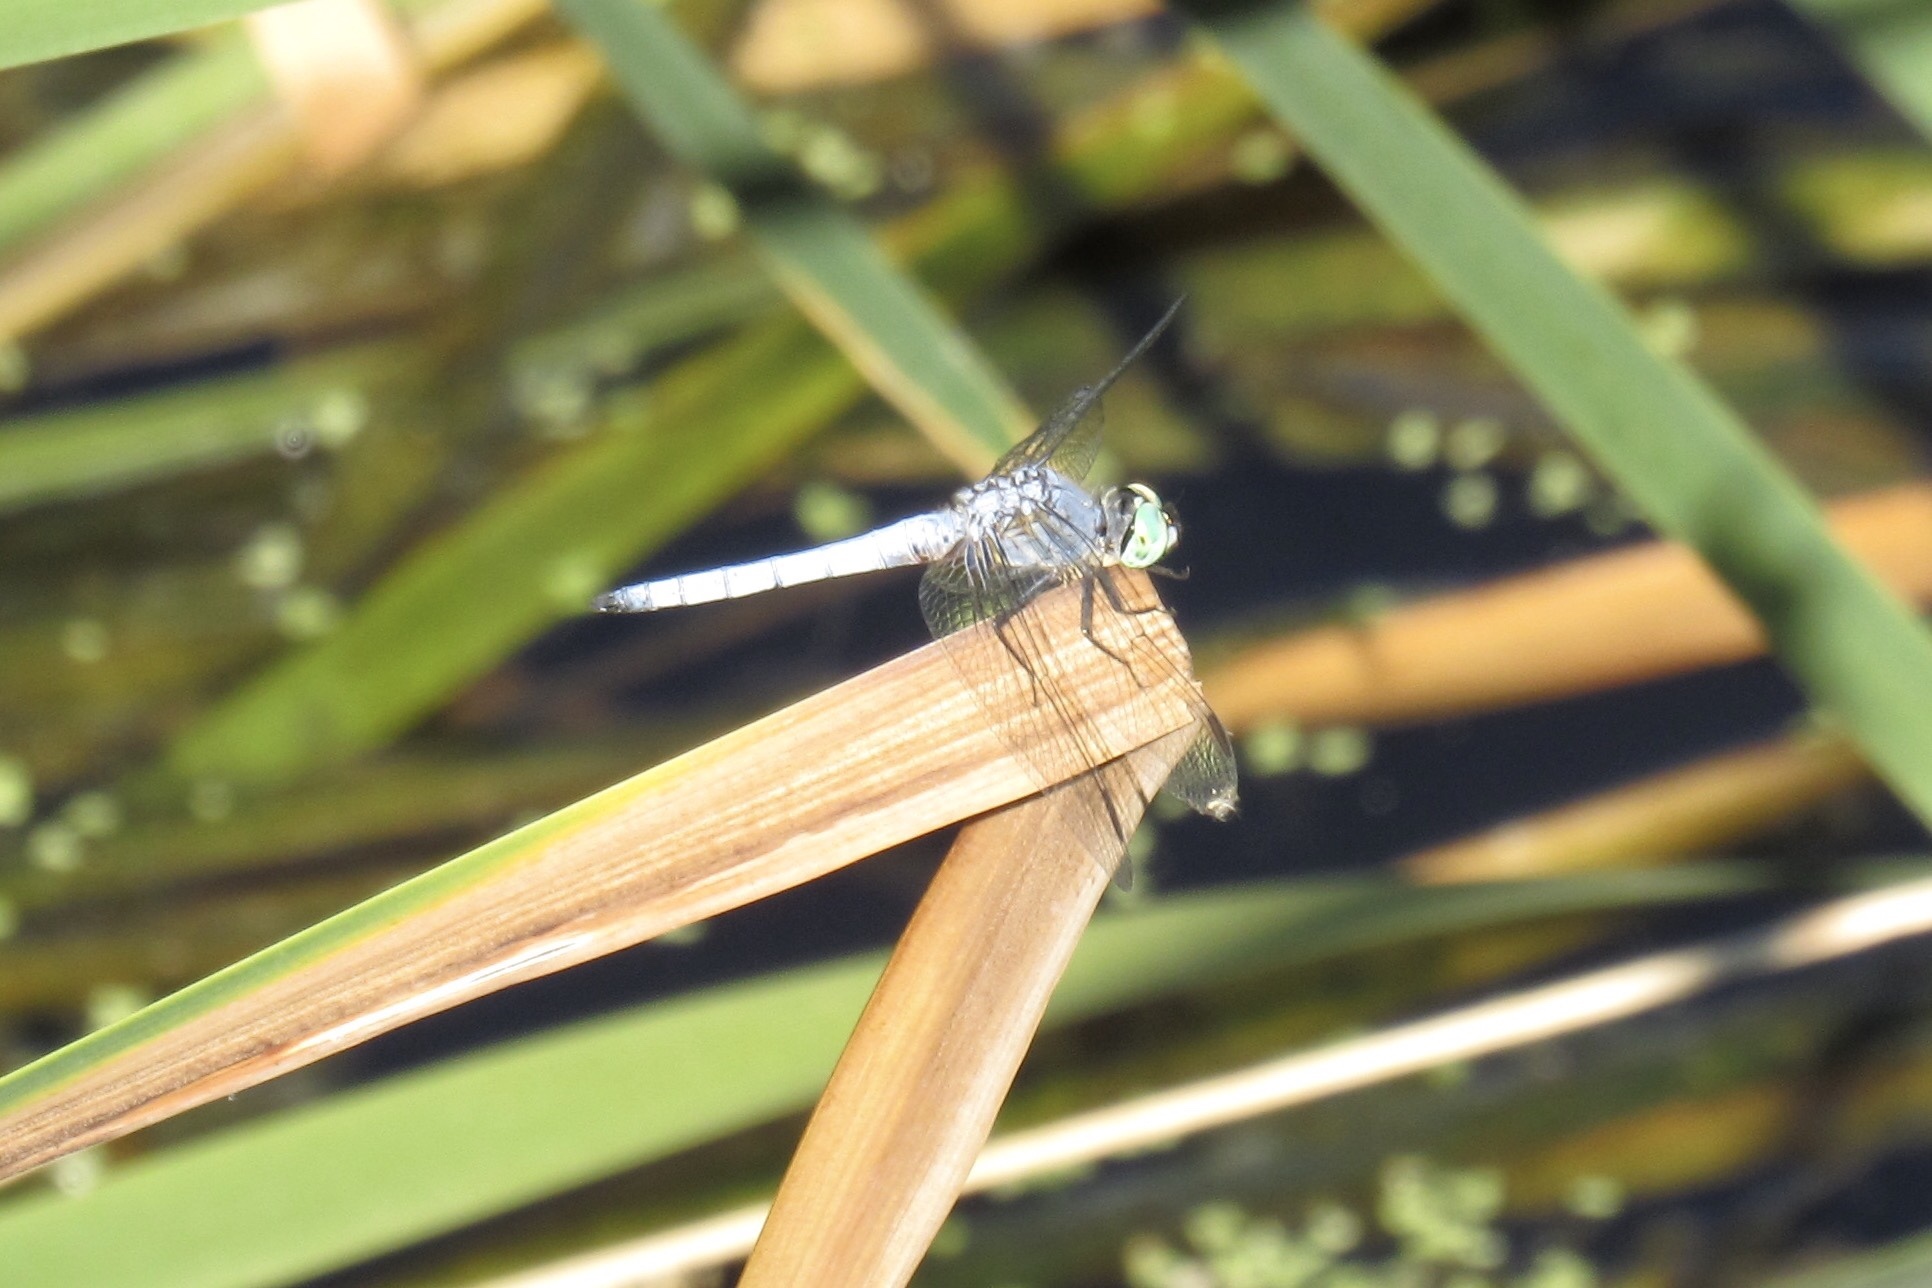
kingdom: Animalia
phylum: Arthropoda
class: Insecta
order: Odonata
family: Libellulidae
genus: Pachydiplax
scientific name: Pachydiplax longipennis
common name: Blue dasher
